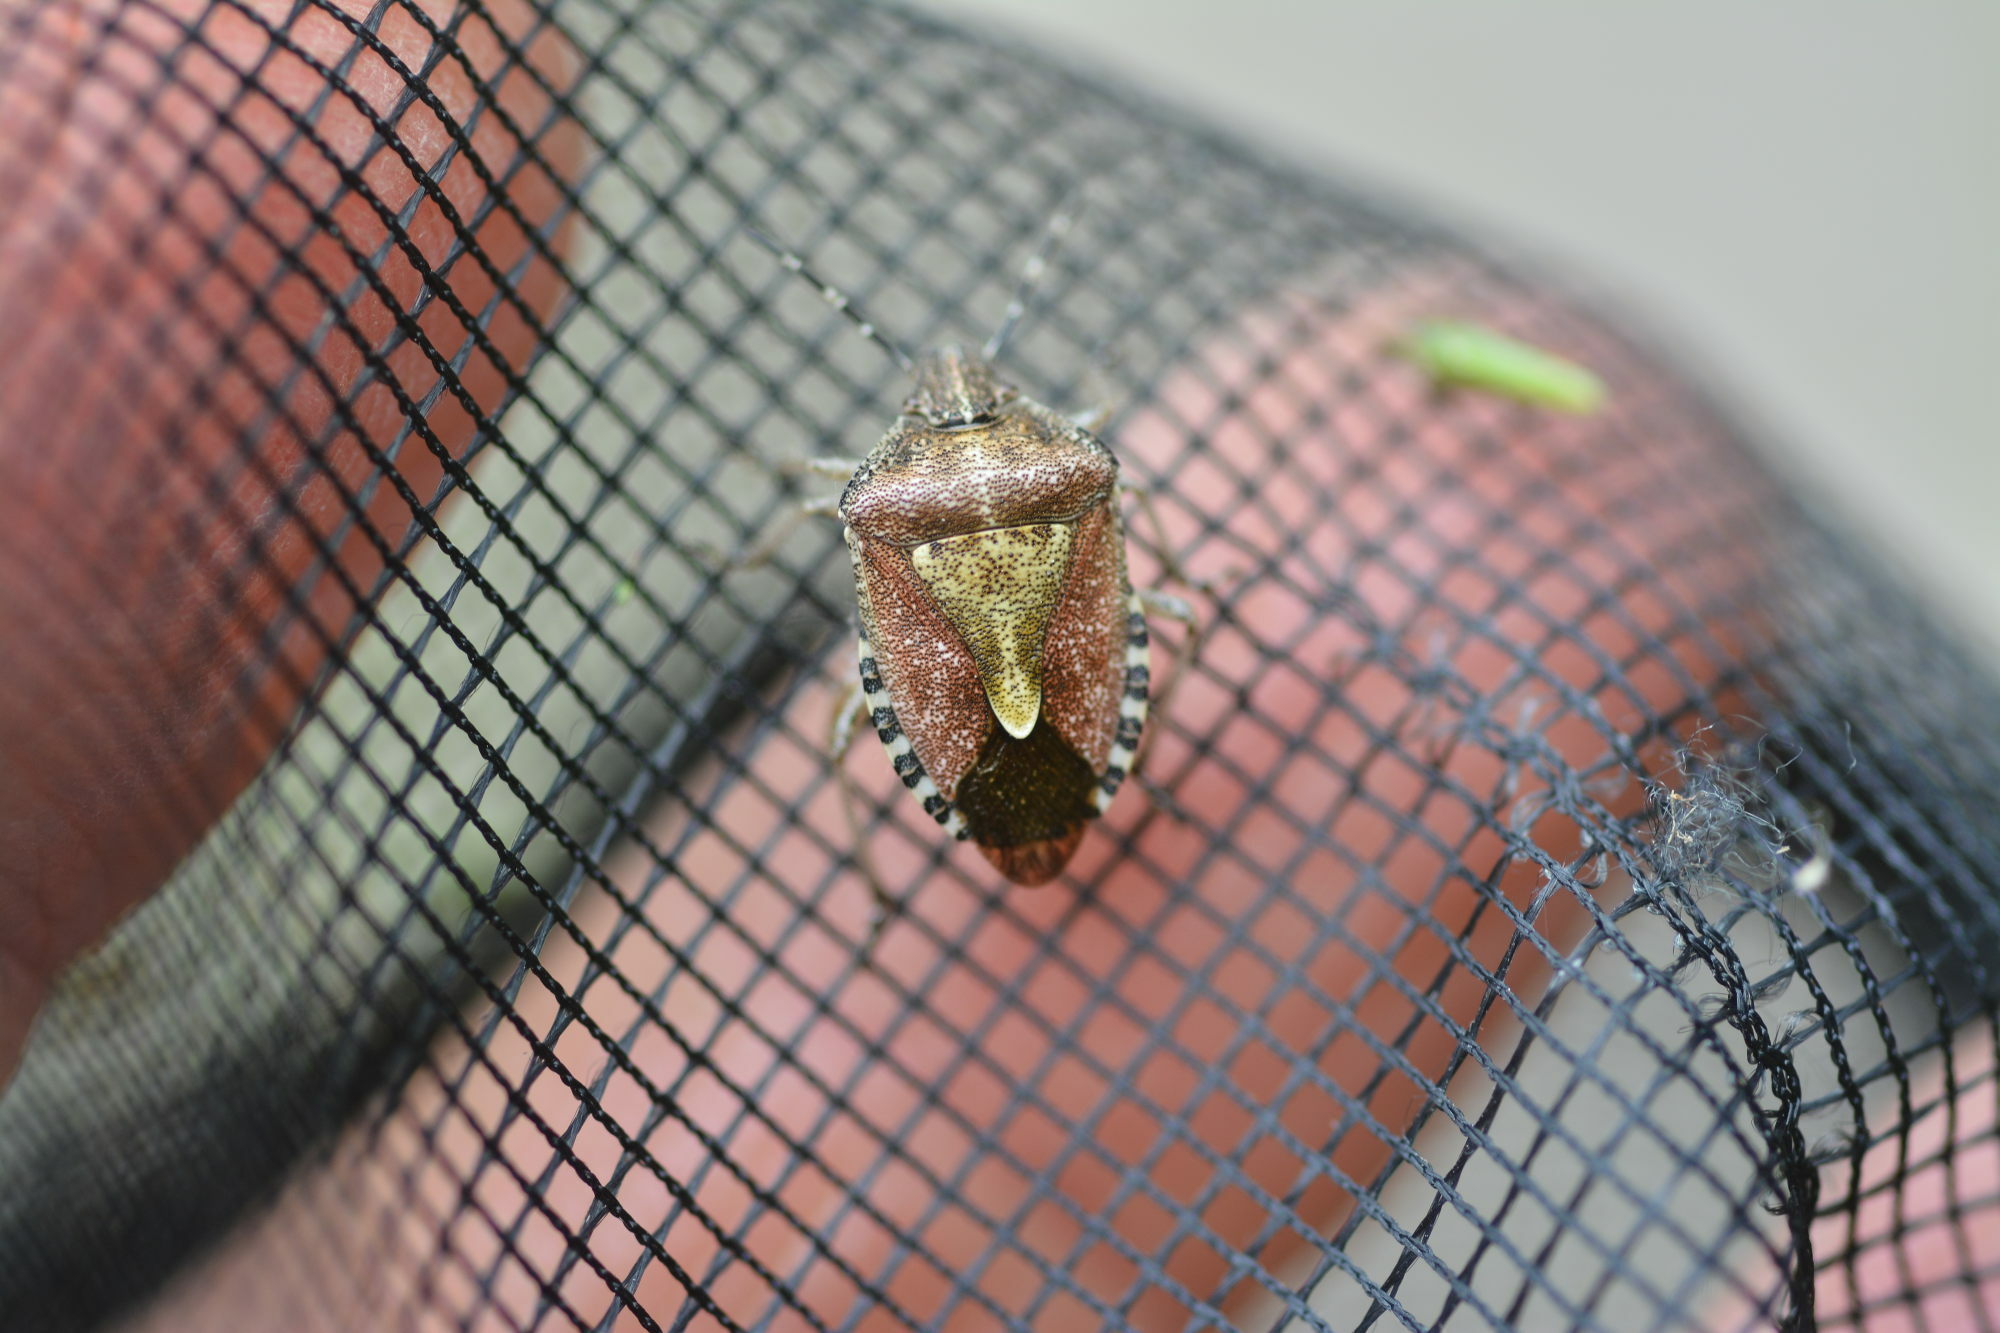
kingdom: Animalia
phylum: Arthropoda
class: Insecta
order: Hemiptera
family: Pentatomidae
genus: Dolycoris
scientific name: Dolycoris baccarum
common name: Sloe bug
